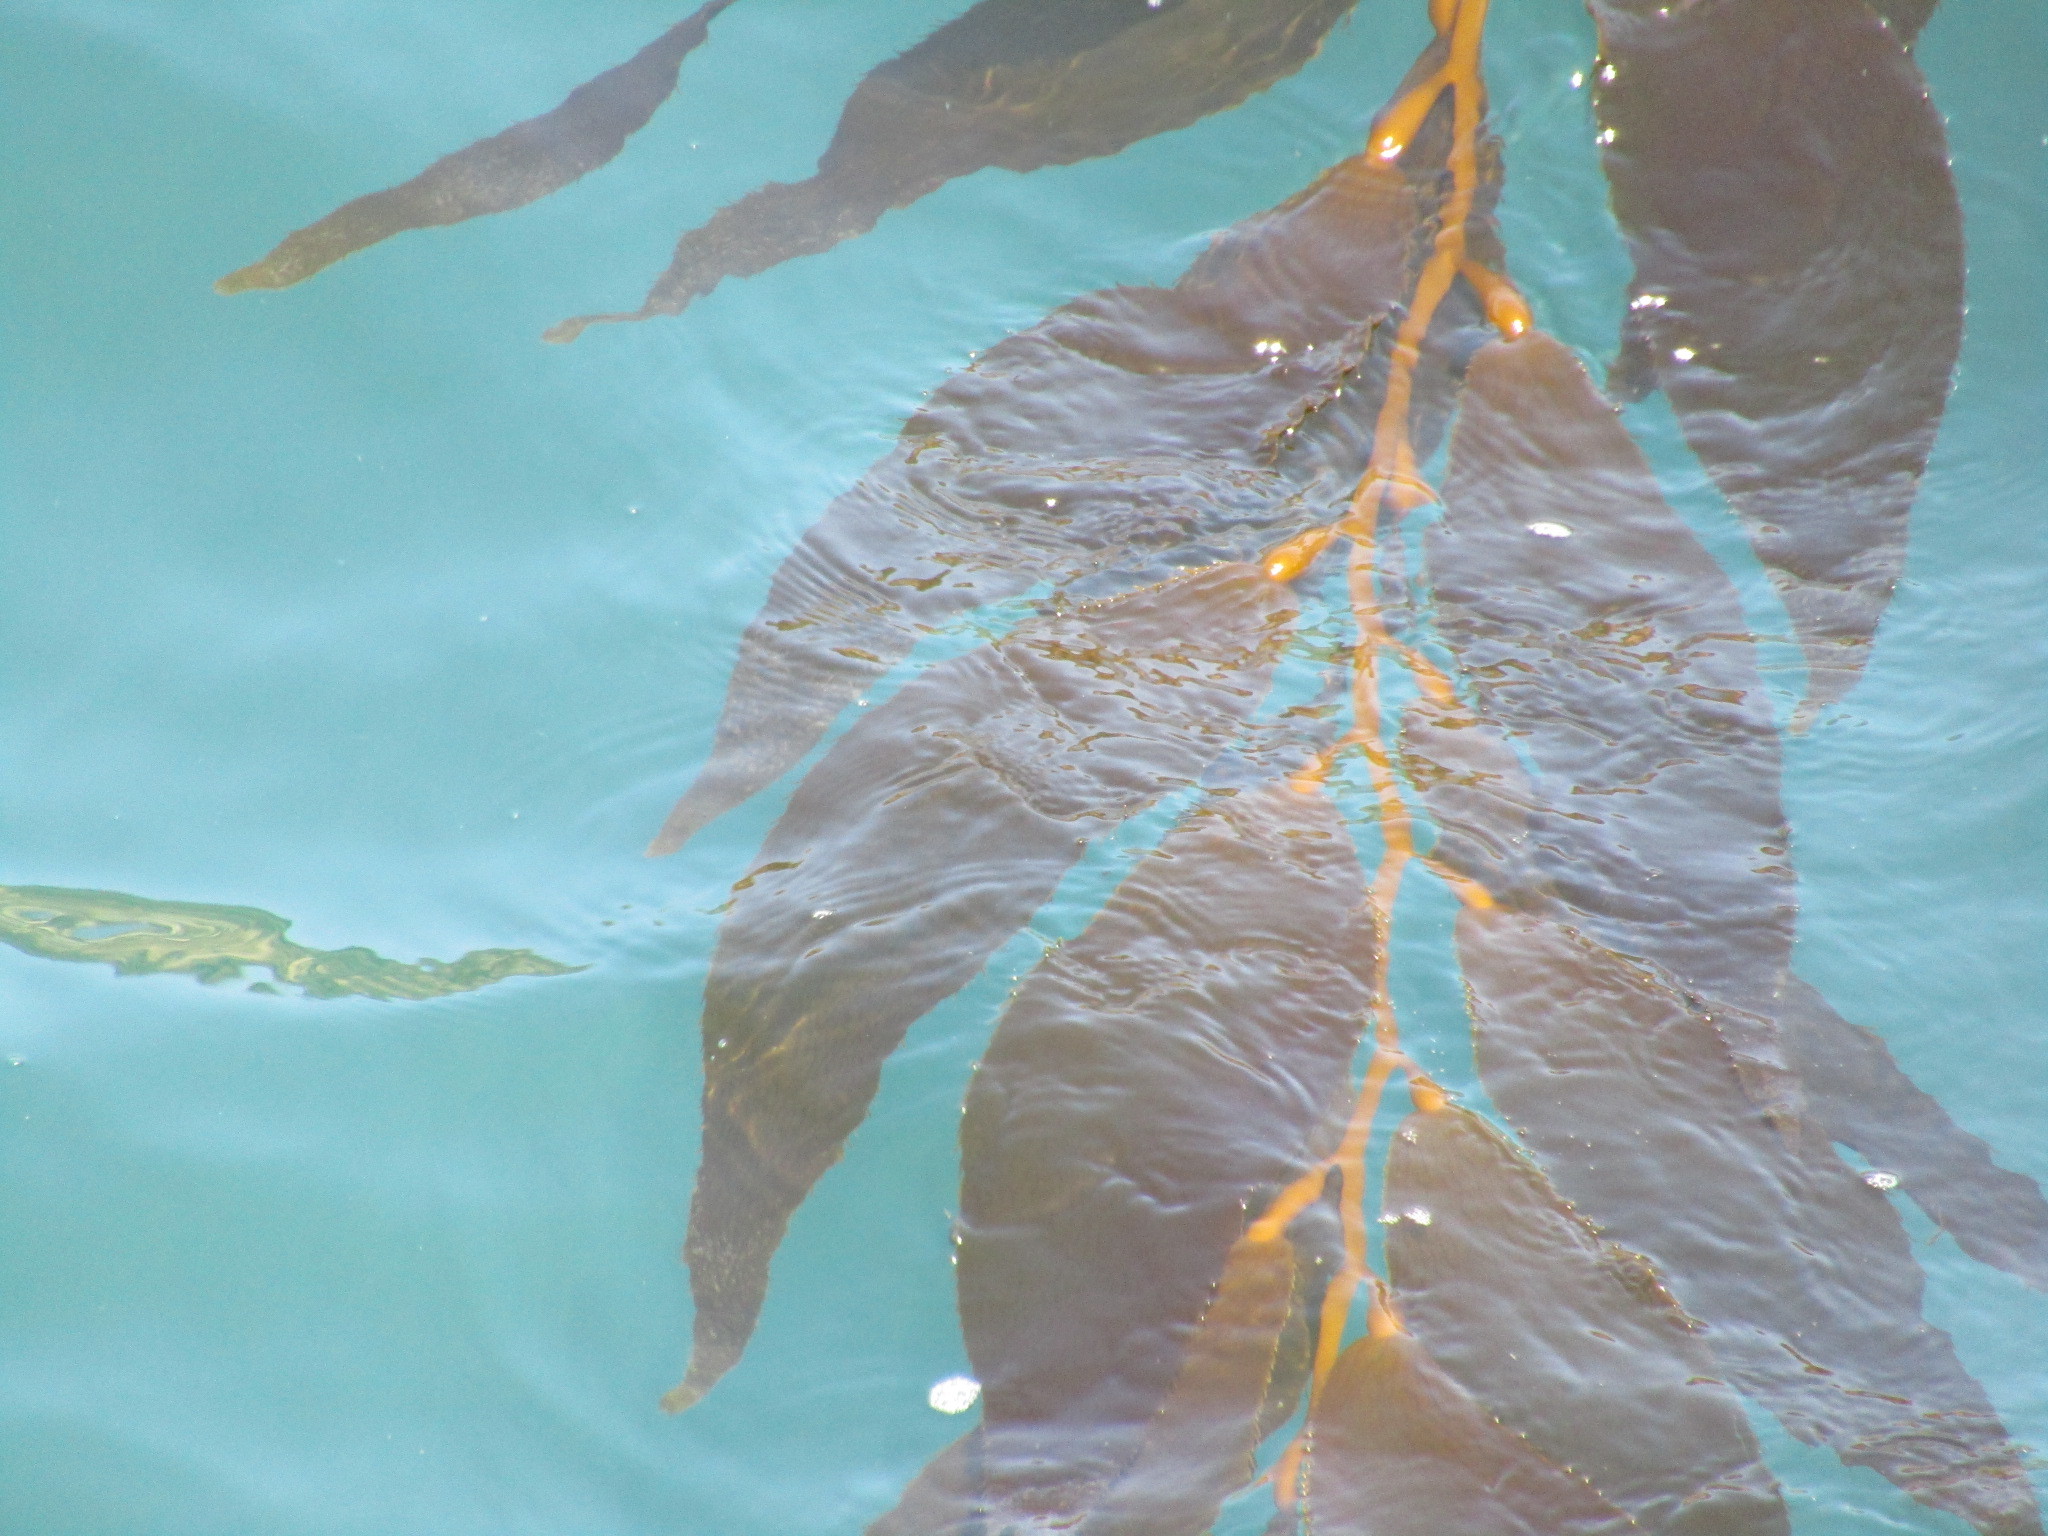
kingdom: Chromista
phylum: Ochrophyta
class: Phaeophyceae
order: Laminariales
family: Laminariaceae
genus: Macrocystis
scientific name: Macrocystis pyrifera
